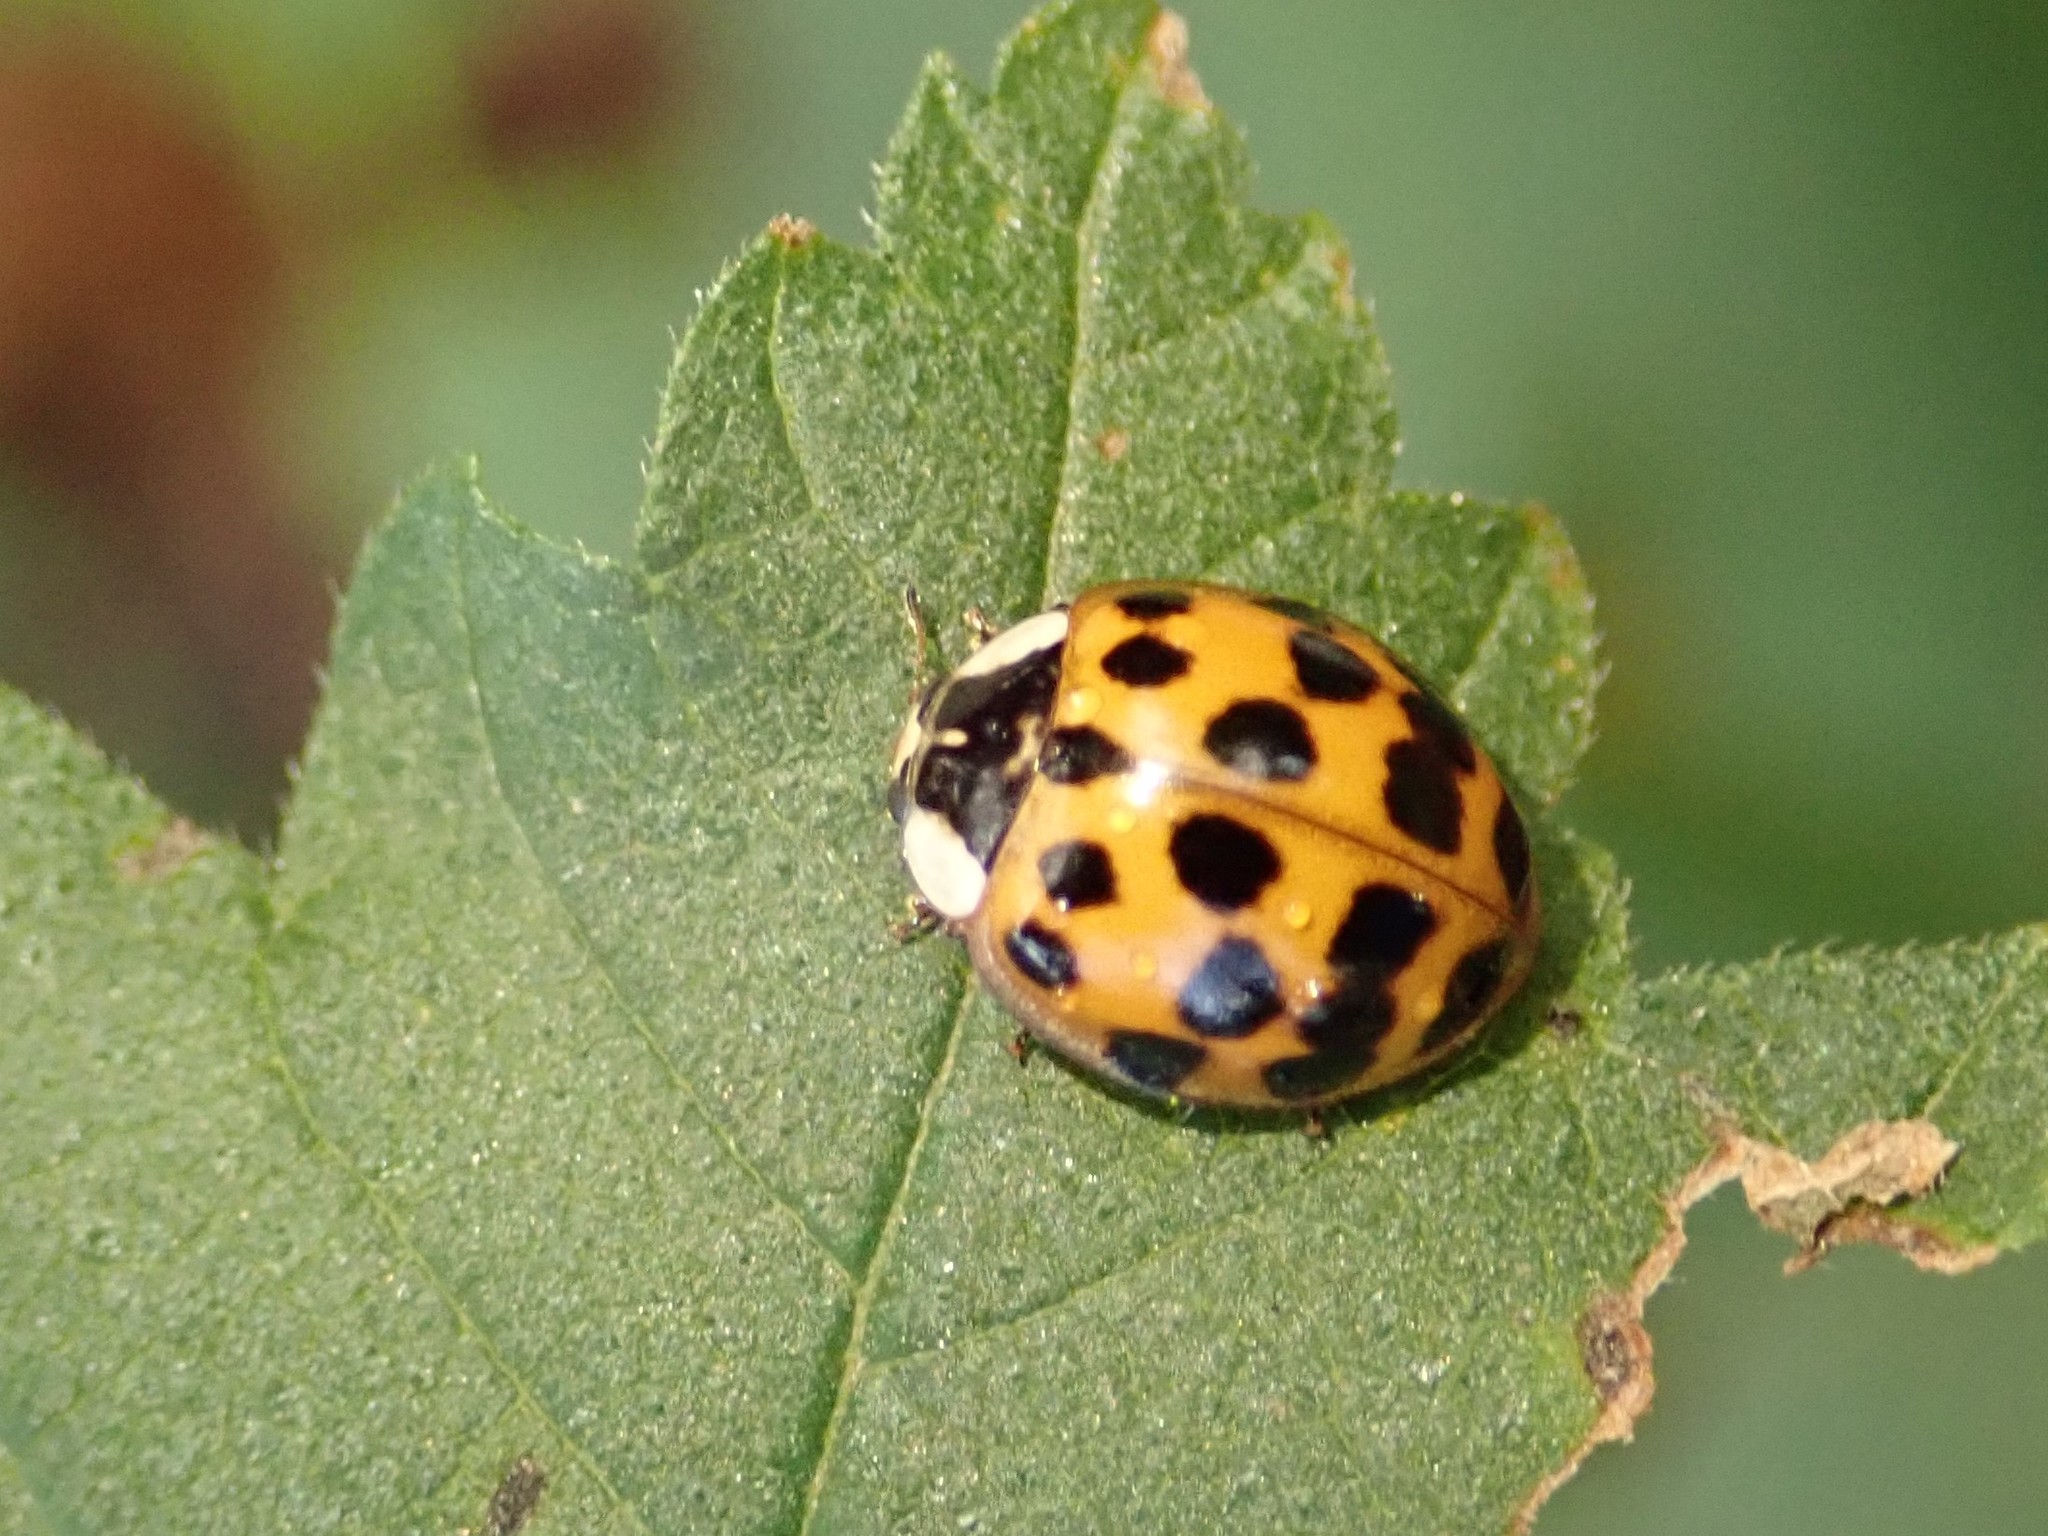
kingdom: Animalia
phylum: Arthropoda
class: Insecta
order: Coleoptera
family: Coccinellidae
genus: Harmonia
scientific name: Harmonia axyridis
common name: Harlequin ladybird
